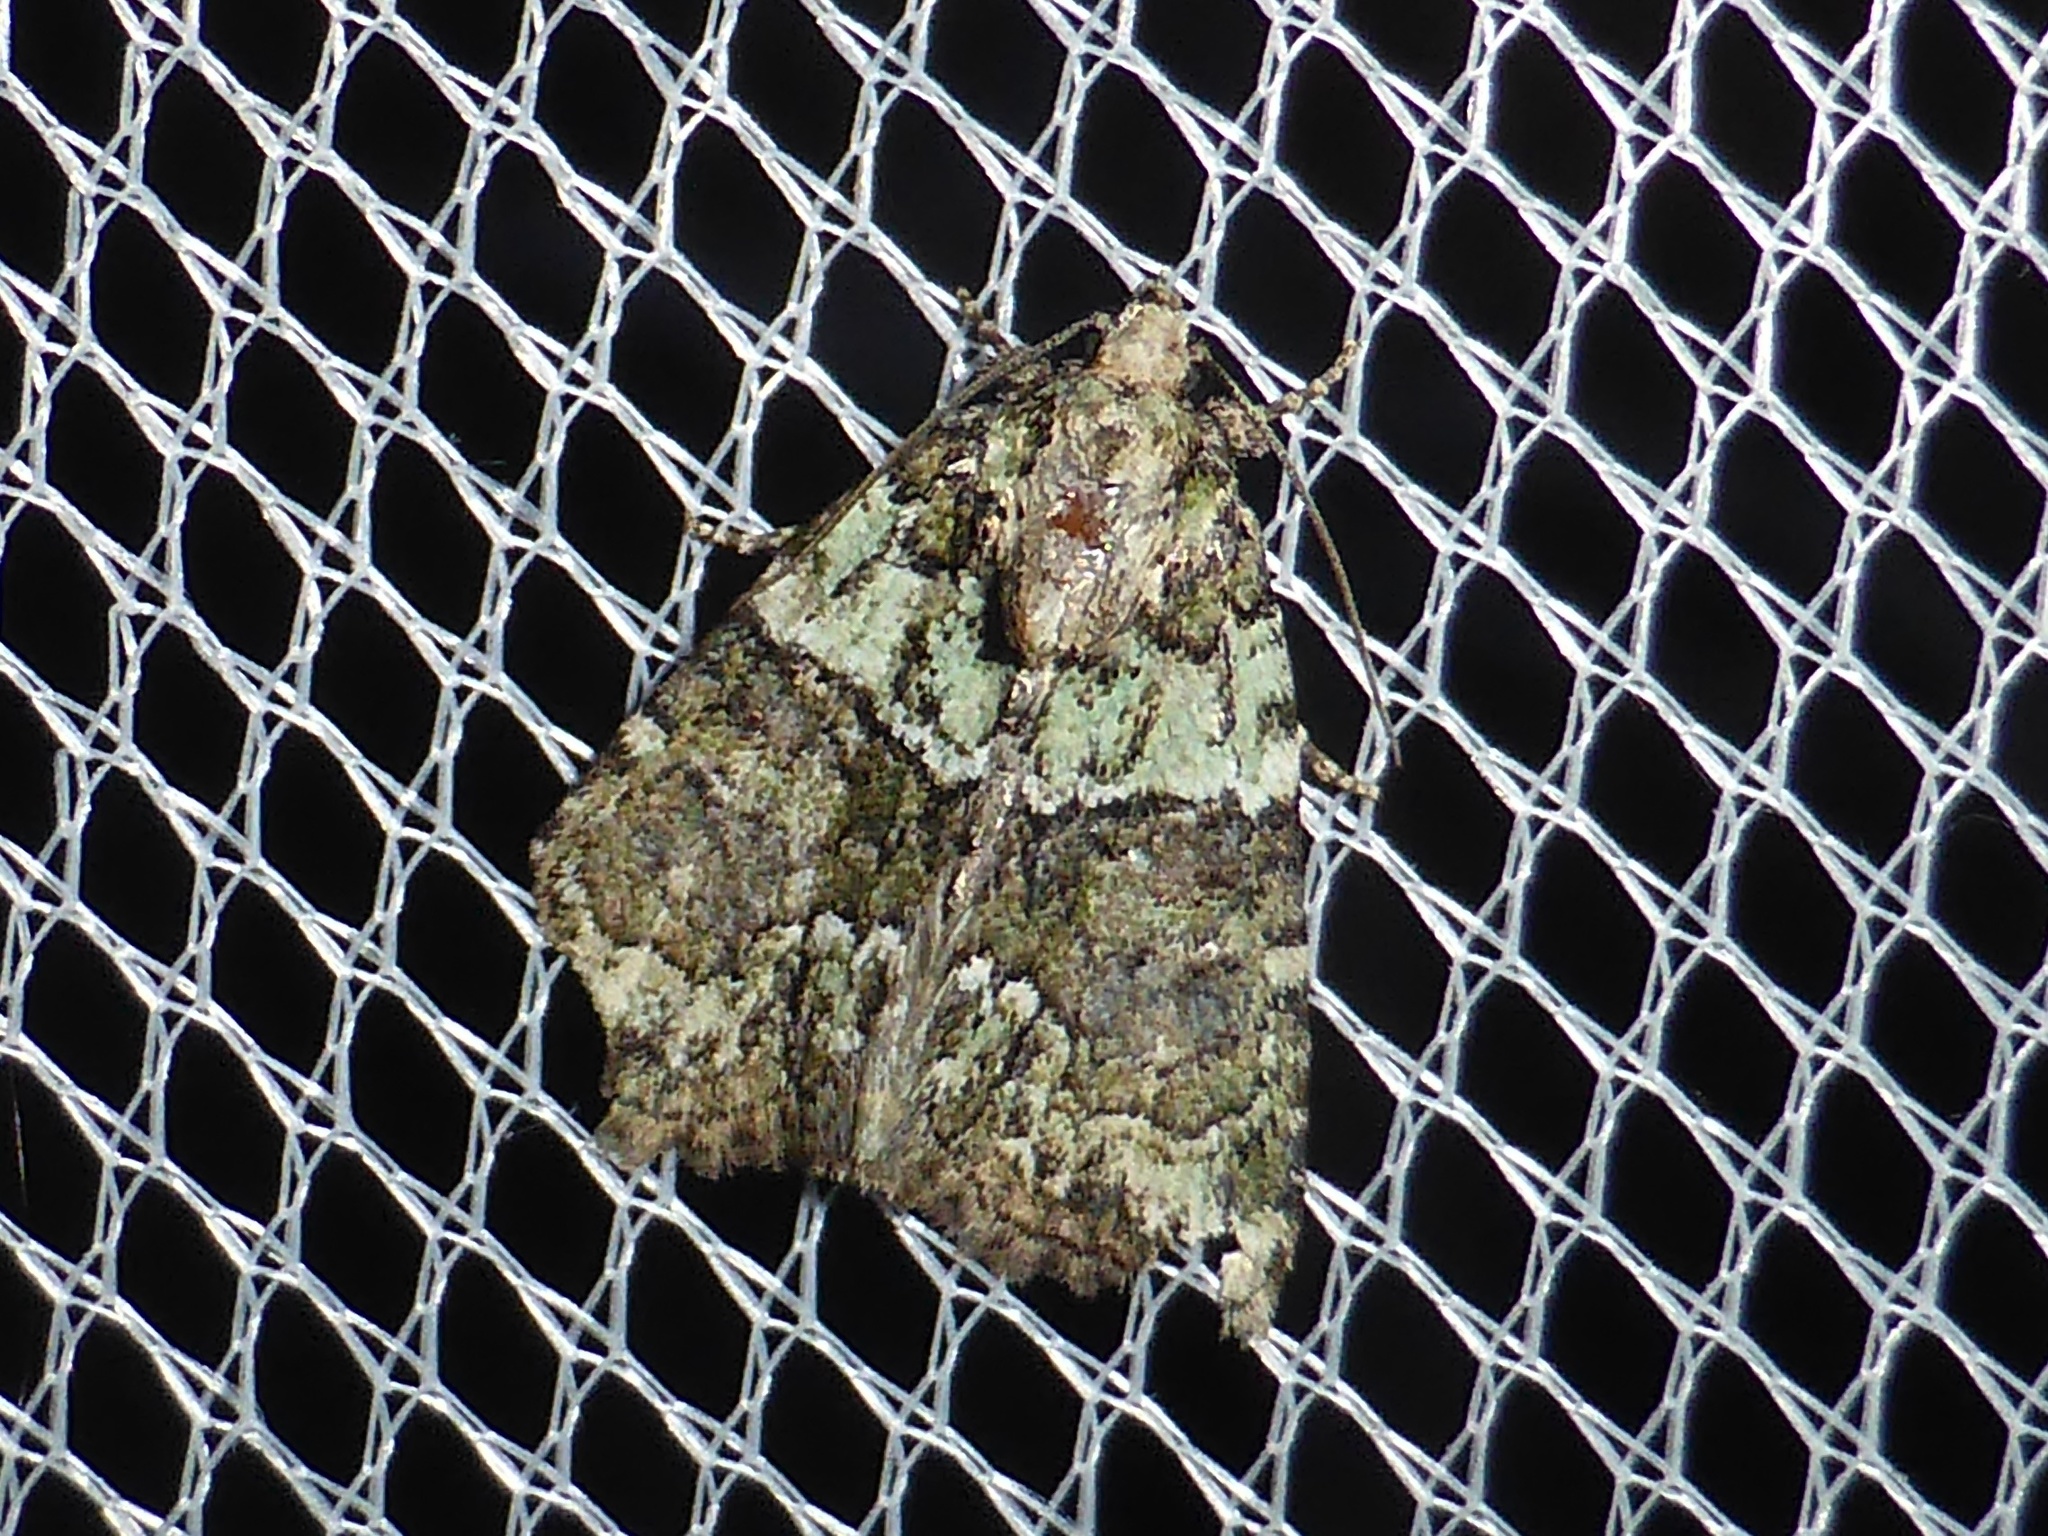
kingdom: Animalia
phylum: Arthropoda
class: Insecta
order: Lepidoptera
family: Noctuidae
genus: Cryphia
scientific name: Cryphia algae
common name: Tree-lichen beauty
